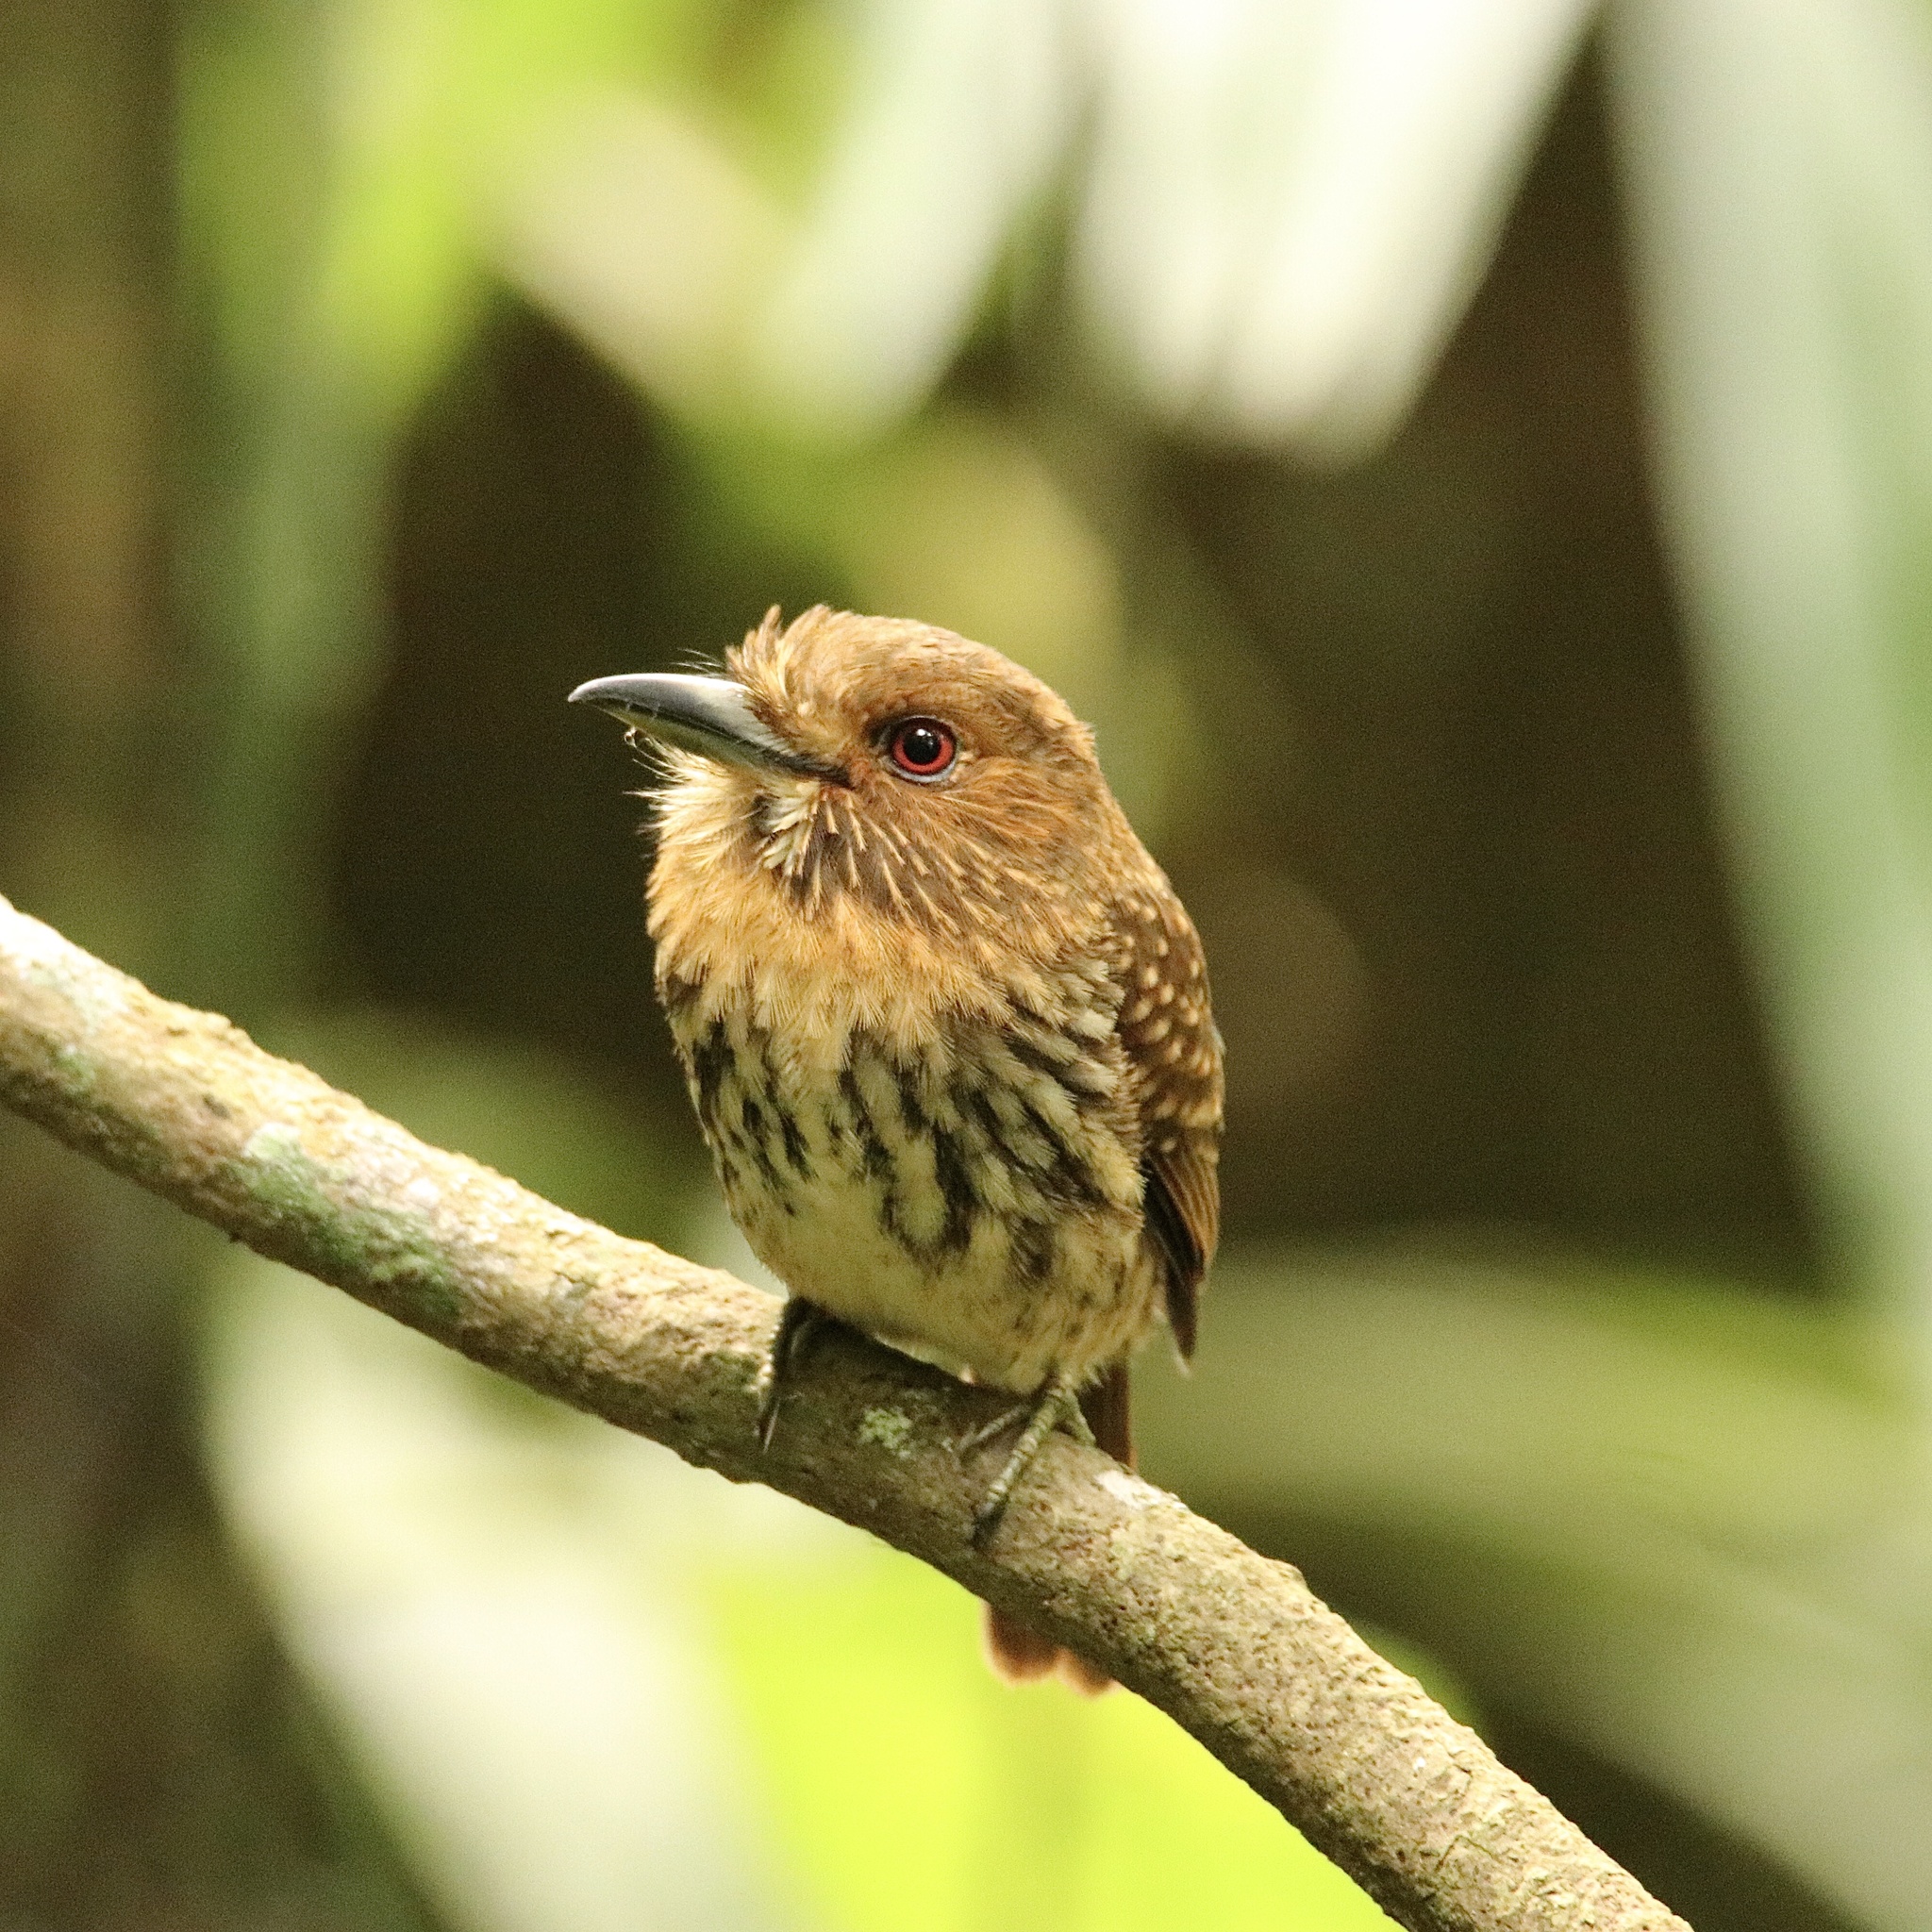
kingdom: Animalia
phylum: Chordata
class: Aves
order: Piciformes
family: Bucconidae
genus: Malacoptila
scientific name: Malacoptila panamensis
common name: White-whiskered puffbird
